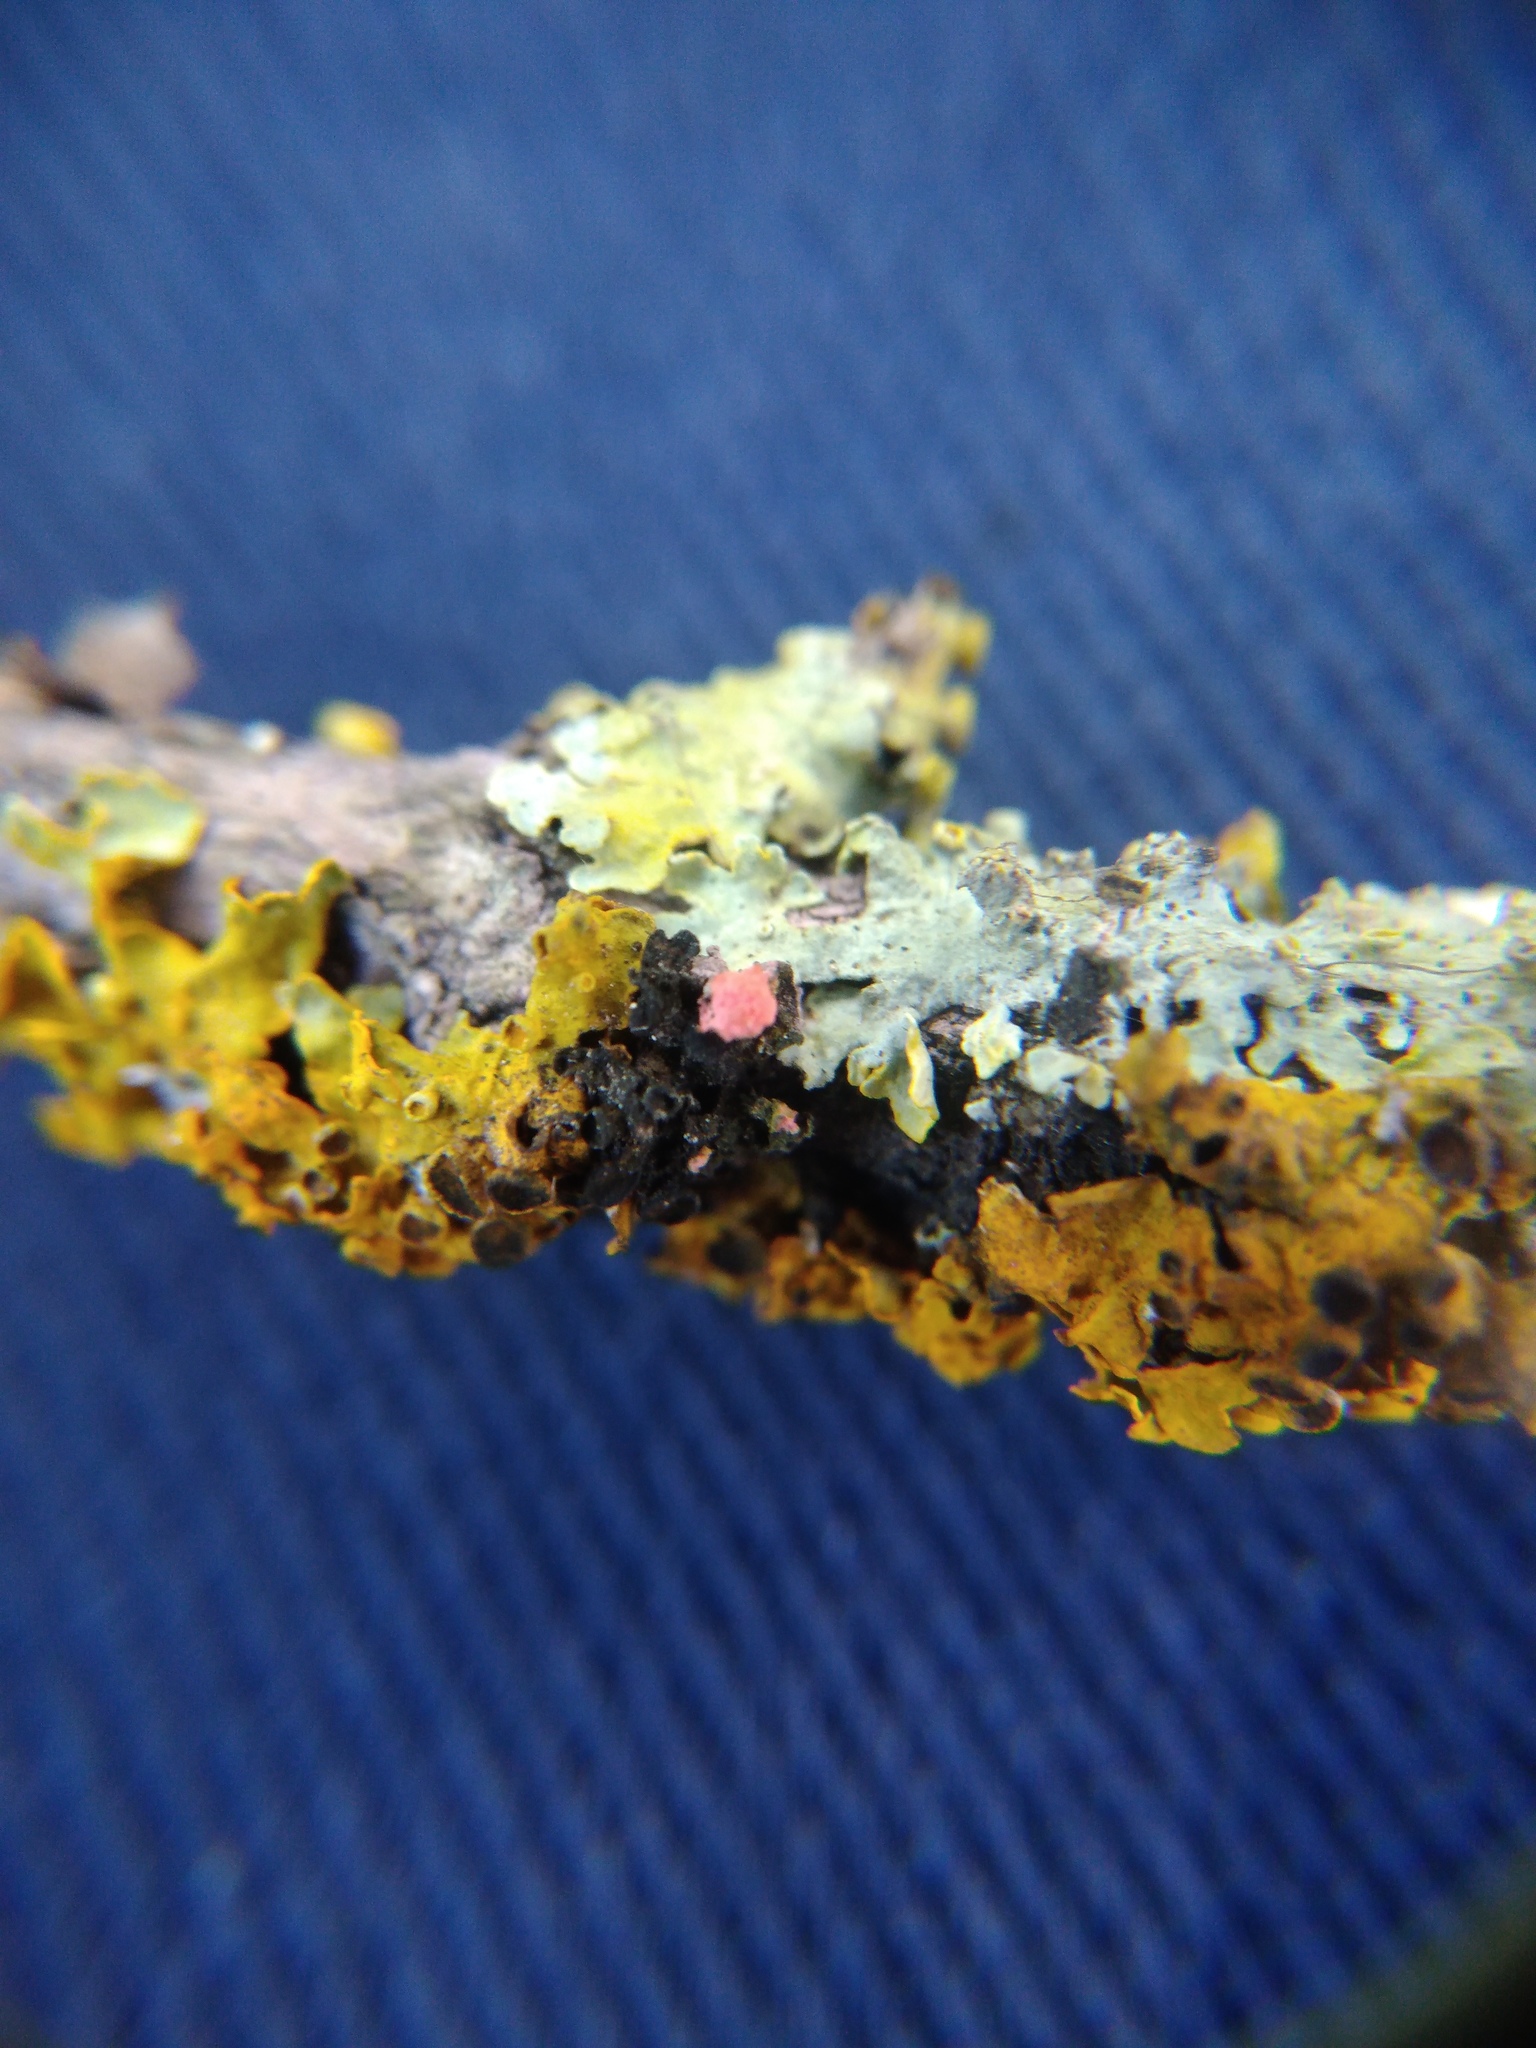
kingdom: Fungi
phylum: Ascomycota
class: Sordariomycetes
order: Hypocreales
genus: Illosporiopsis
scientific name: Illosporiopsis christiansenii
